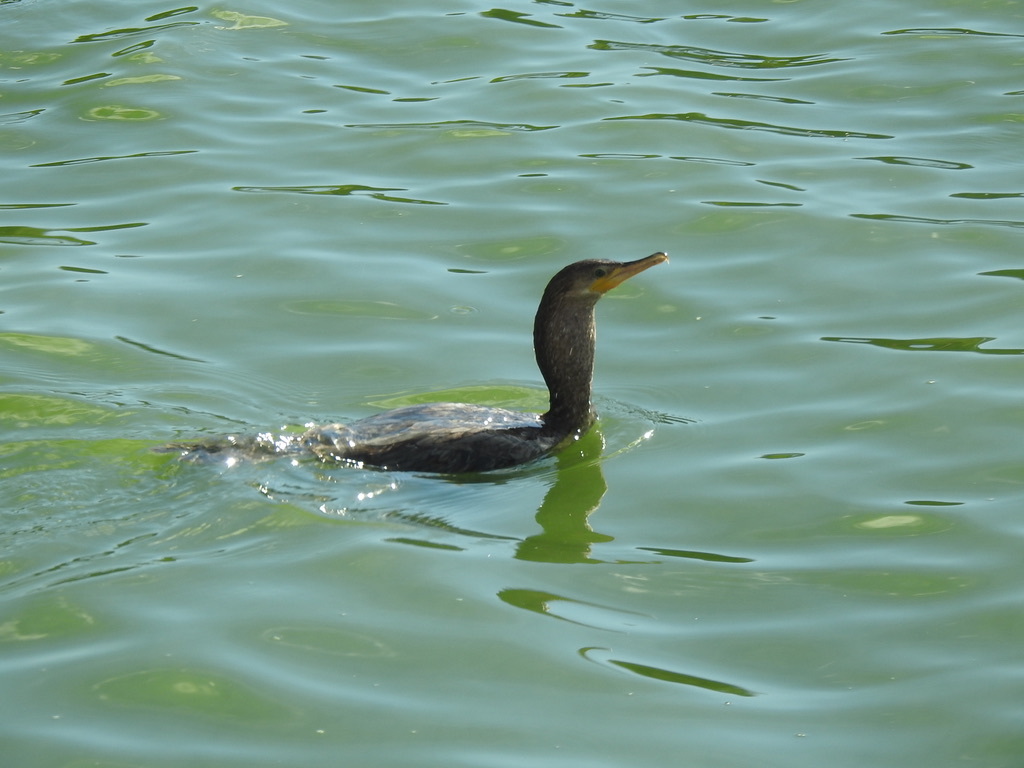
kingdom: Animalia
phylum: Chordata
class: Aves
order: Suliformes
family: Phalacrocoracidae
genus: Phalacrocorax
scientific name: Phalacrocorax brasilianus
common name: Neotropic cormorant
